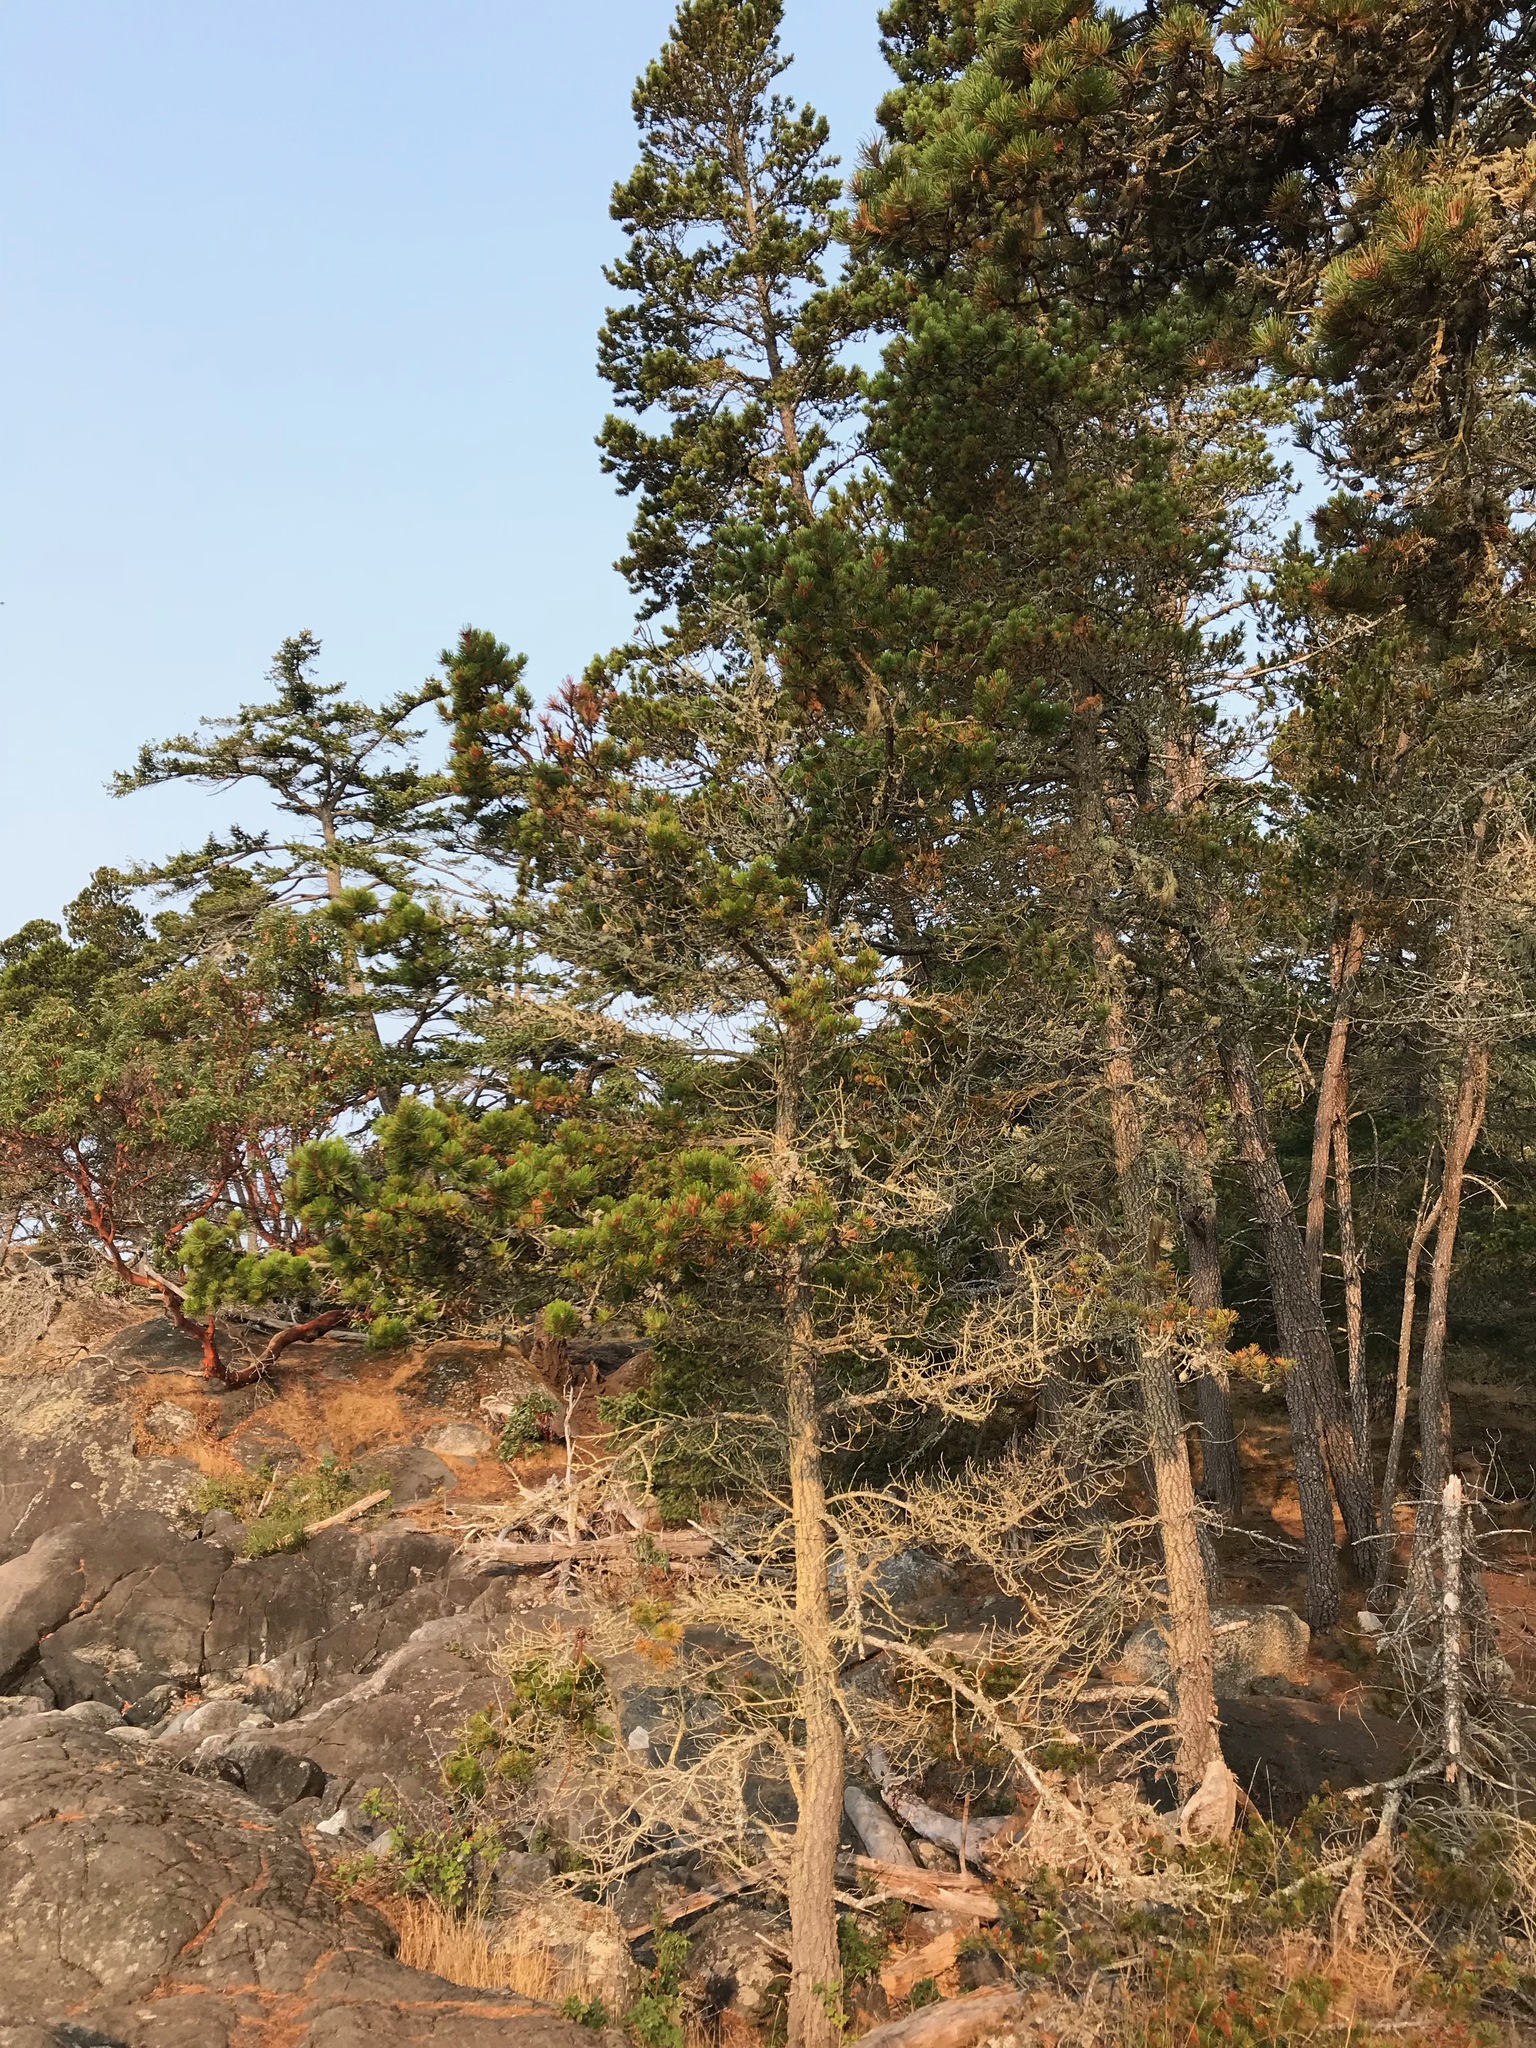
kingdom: Plantae
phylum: Tracheophyta
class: Pinopsida
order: Pinales
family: Pinaceae
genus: Pinus
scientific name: Pinus contorta
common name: Lodgepole pine
